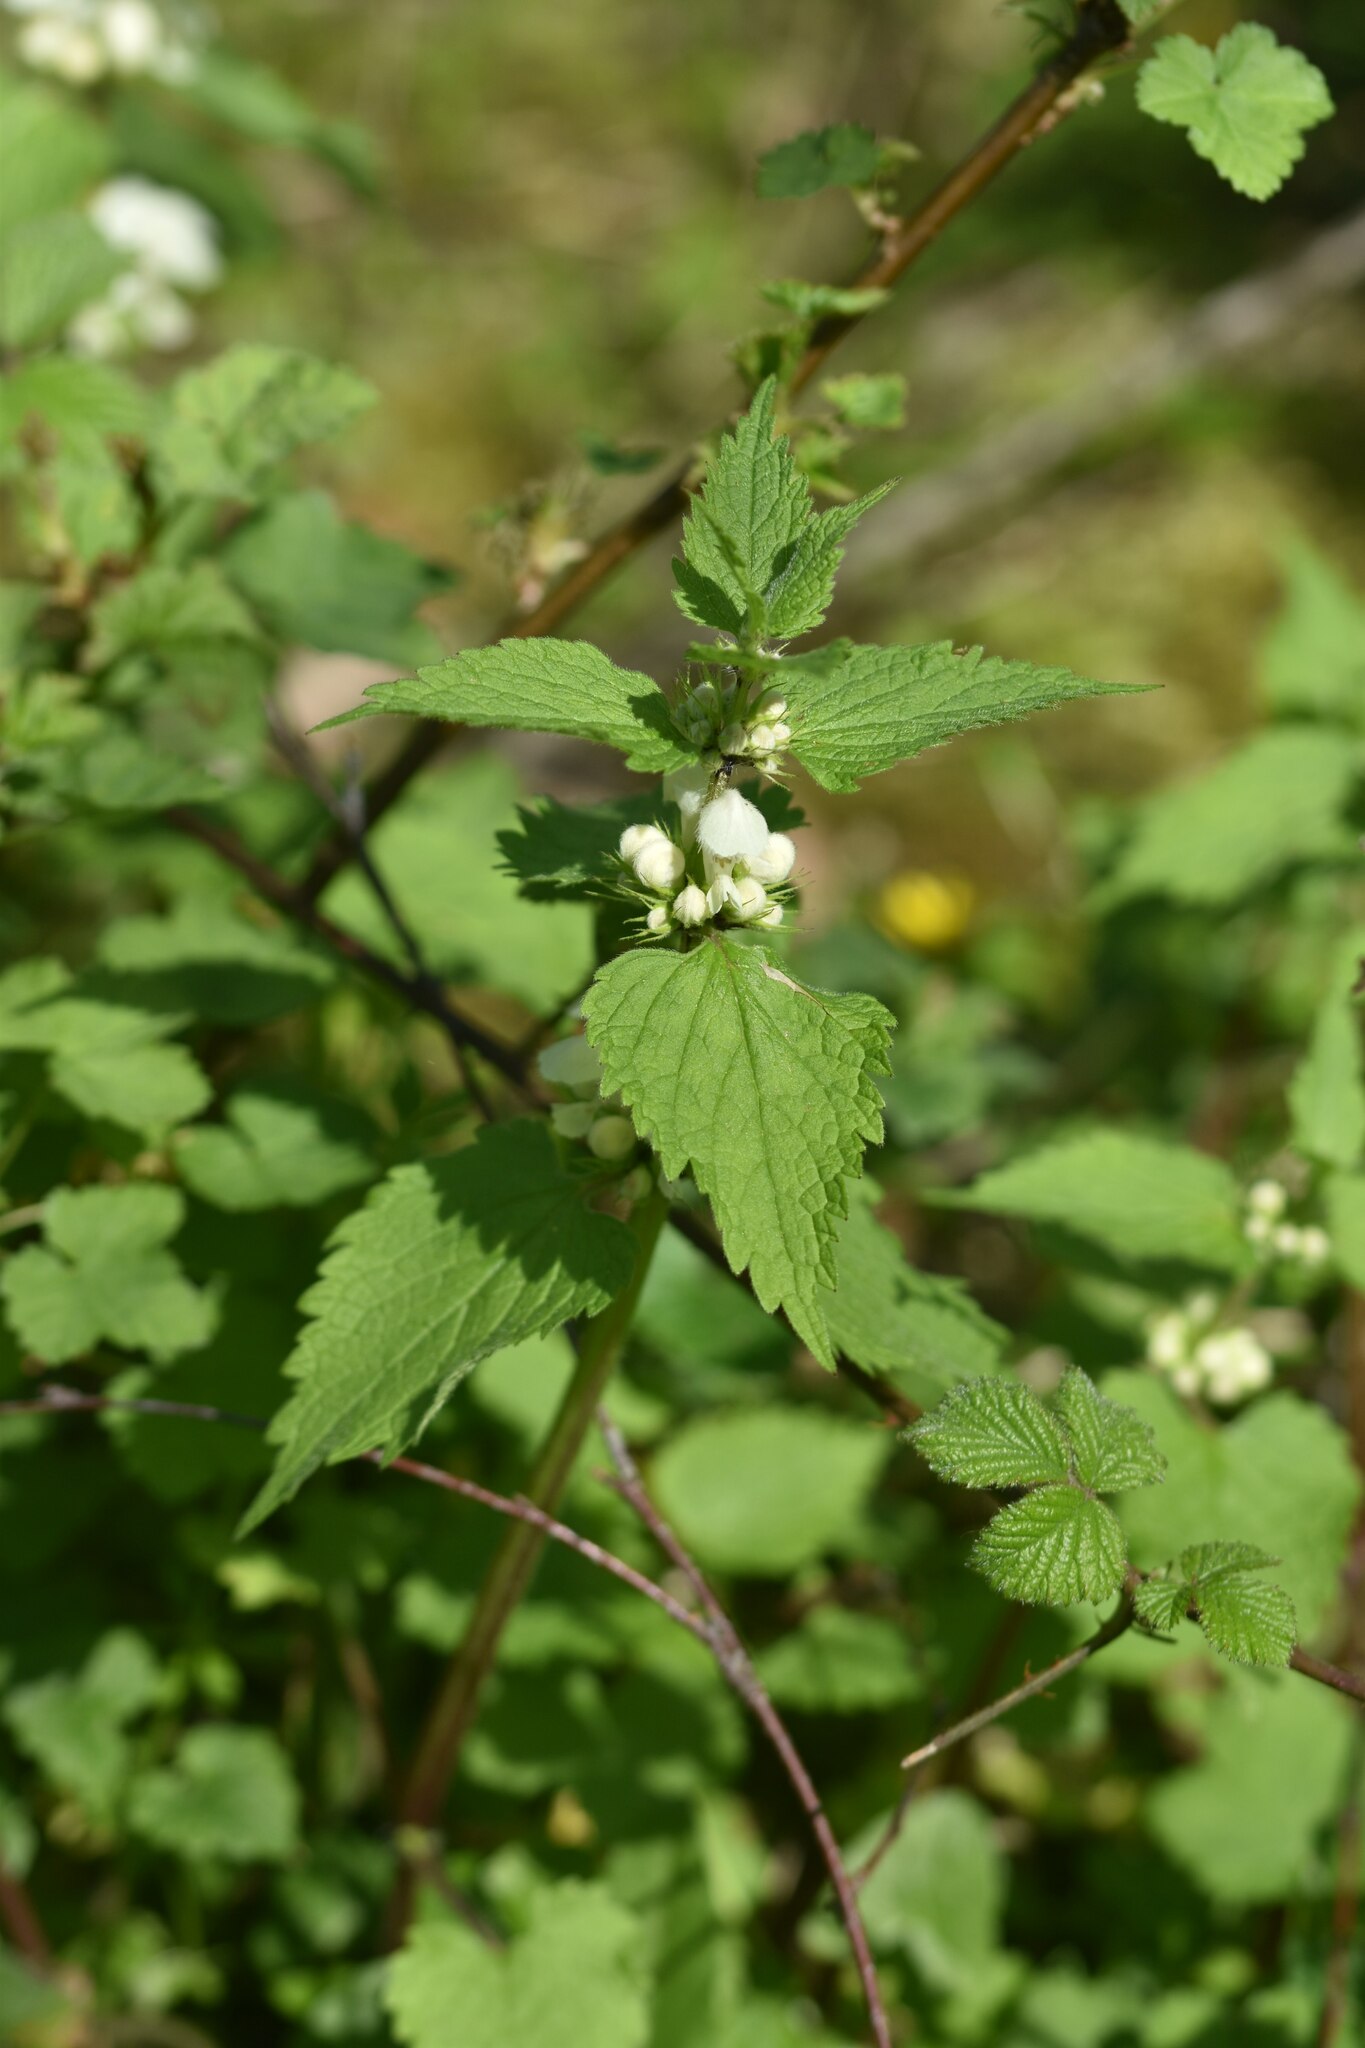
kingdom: Plantae
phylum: Tracheophyta
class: Magnoliopsida
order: Lamiales
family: Lamiaceae
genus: Lamium
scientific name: Lamium album
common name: White dead-nettle
